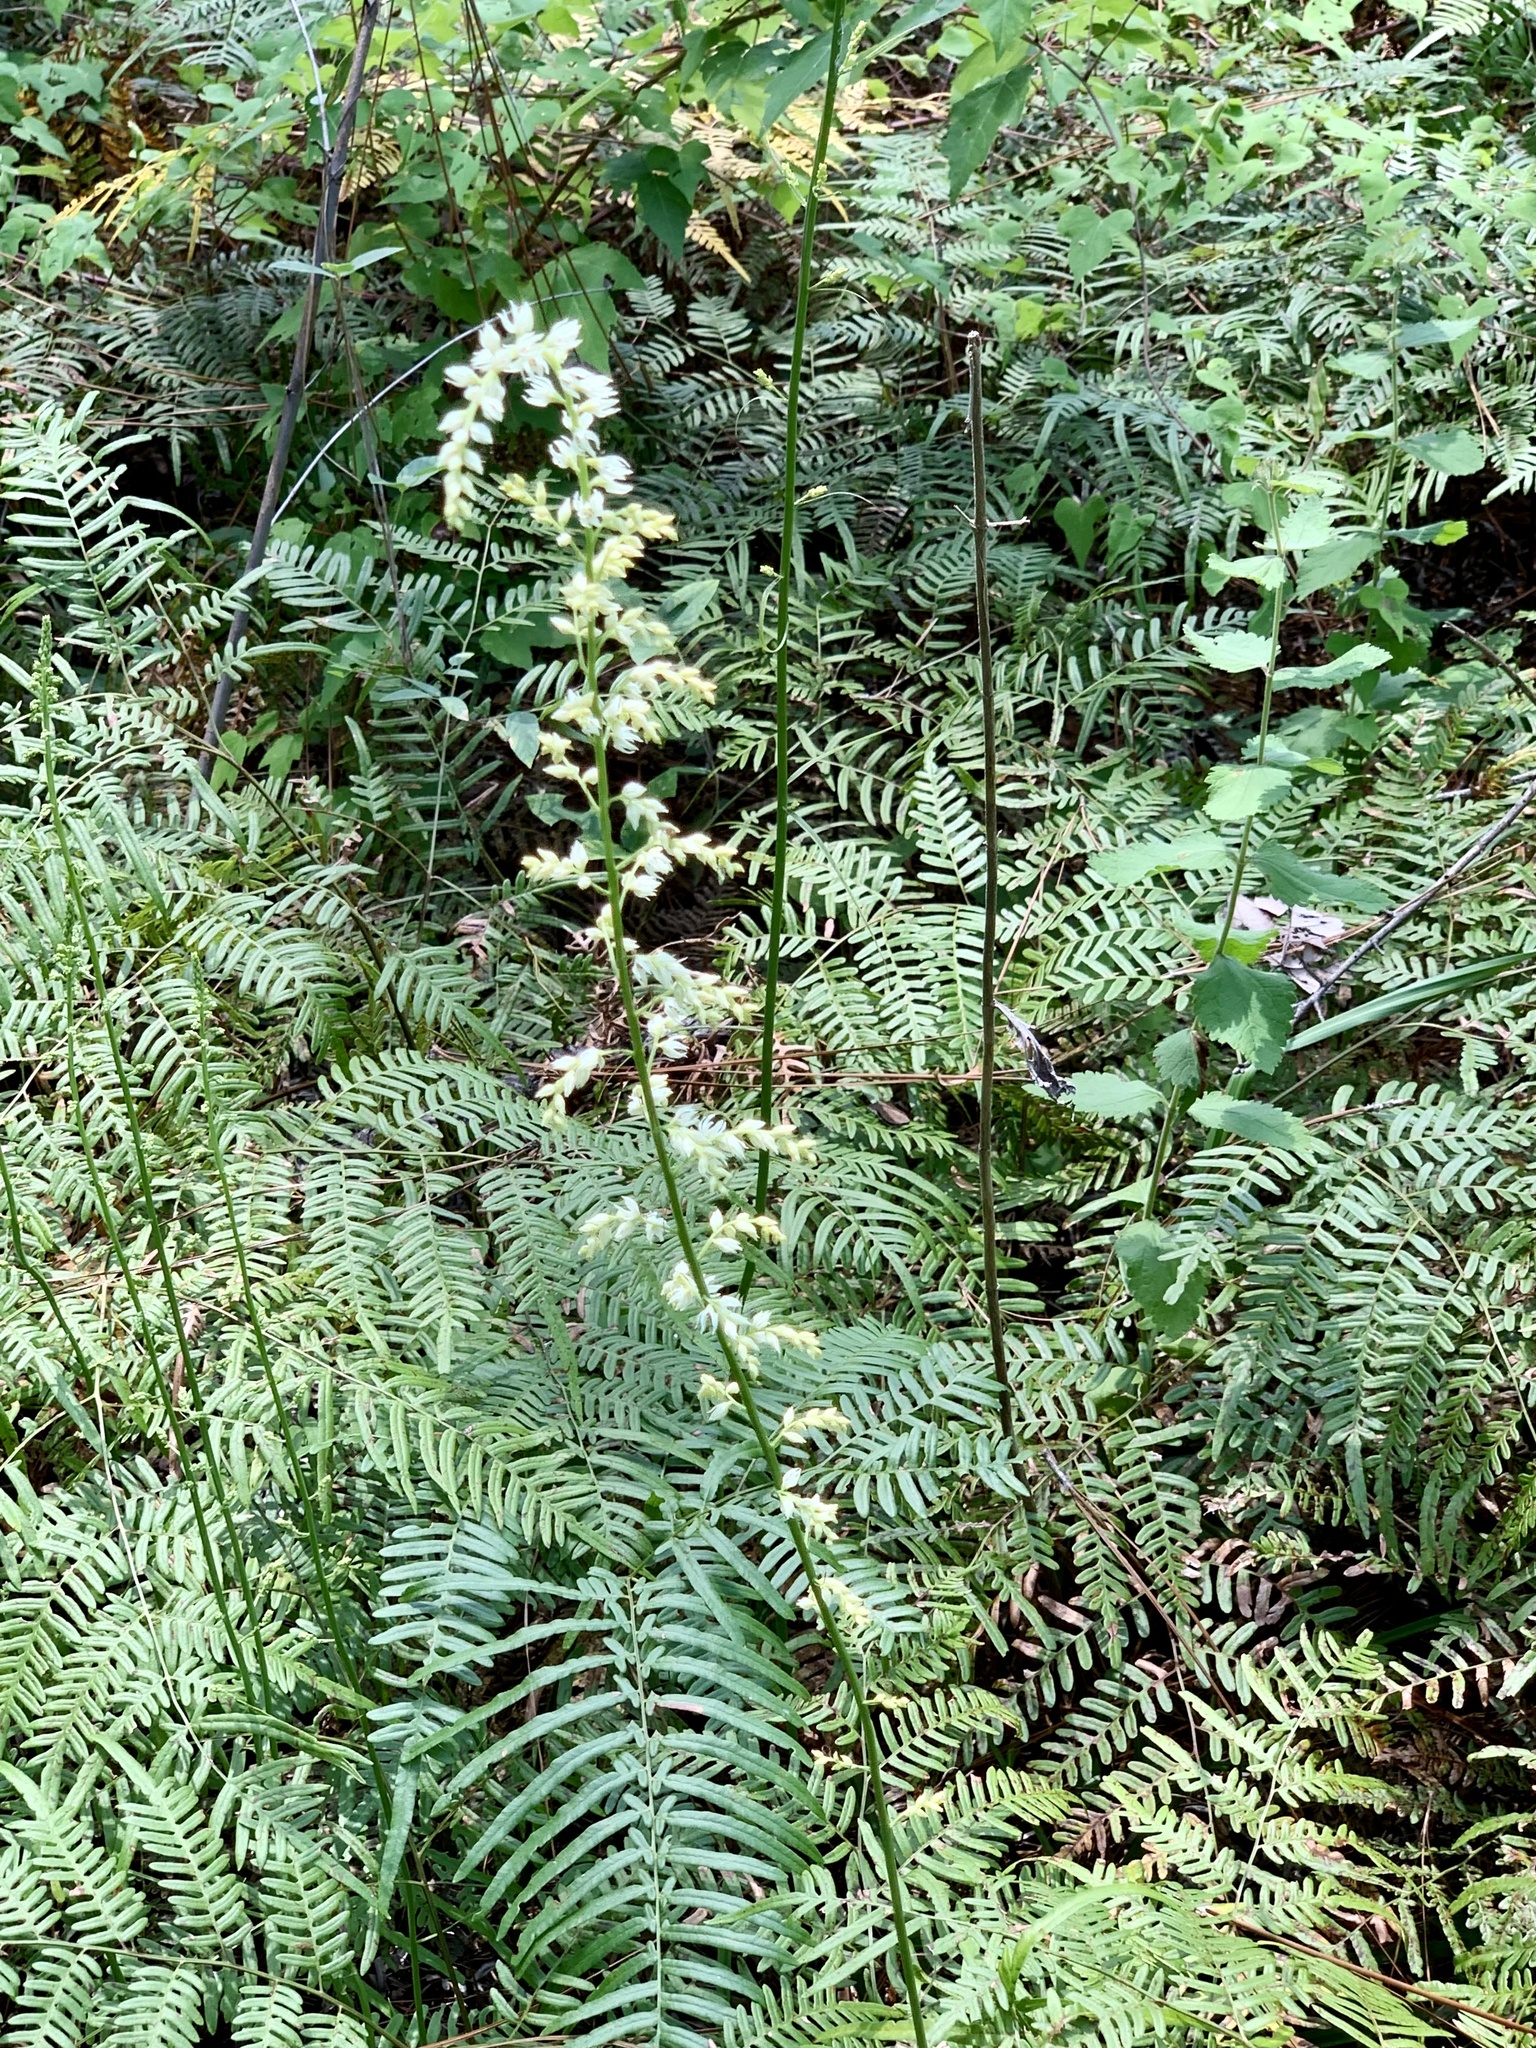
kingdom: Plantae
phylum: Tracheophyta
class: Liliopsida
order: Liliales
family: Melanthiaceae
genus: Stenanthium
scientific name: Stenanthium gramineum
